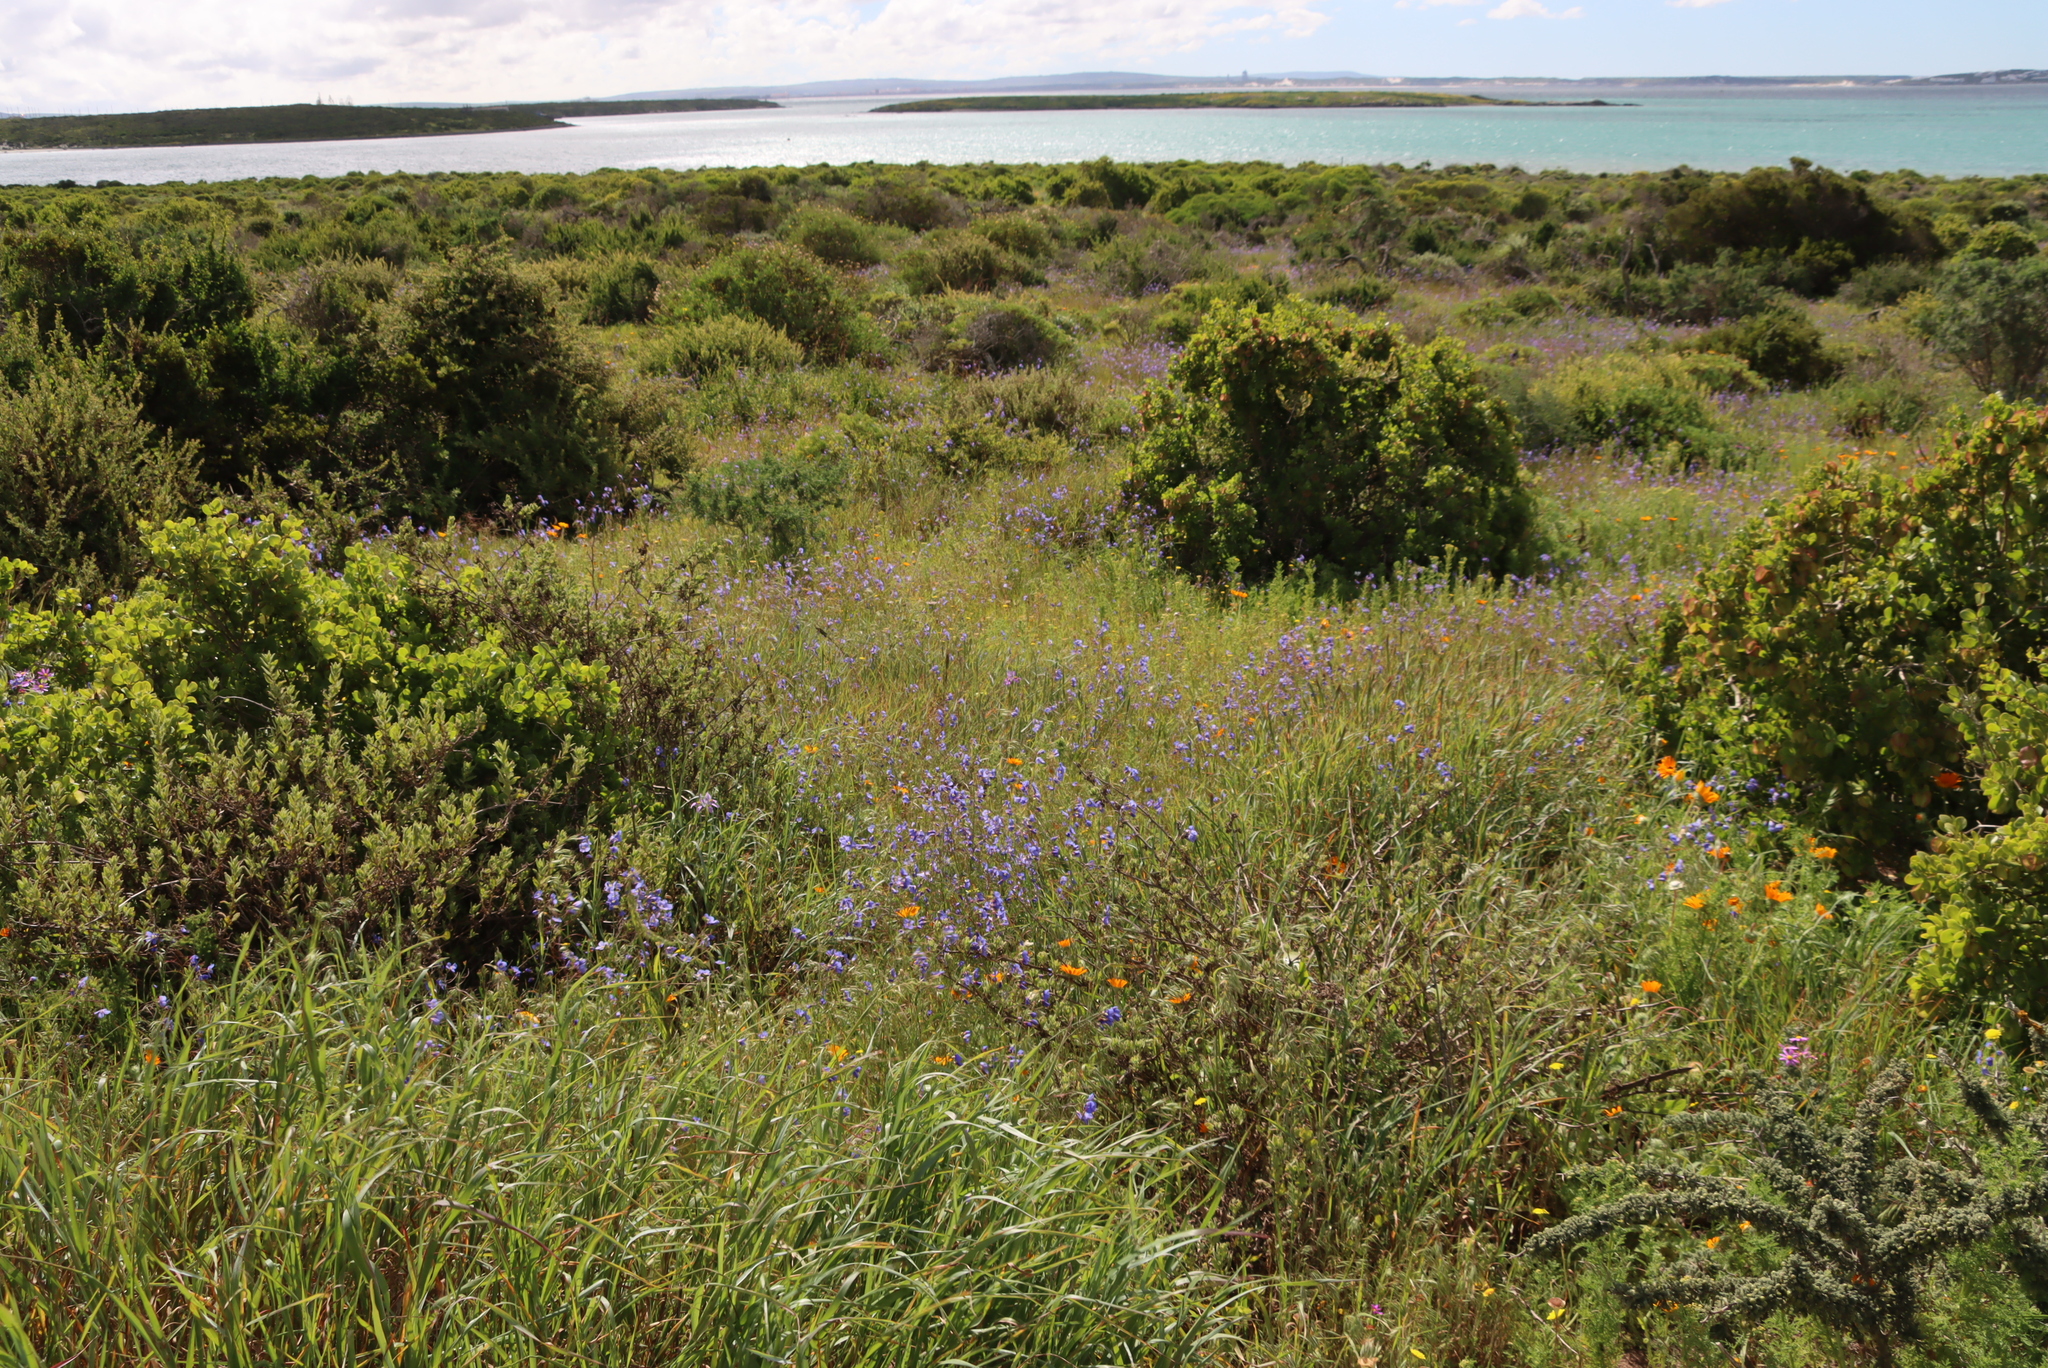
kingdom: Plantae
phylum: Tracheophyta
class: Magnoliopsida
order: Brassicales
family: Brassicaceae
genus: Heliophila
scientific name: Heliophila coronopifolia
